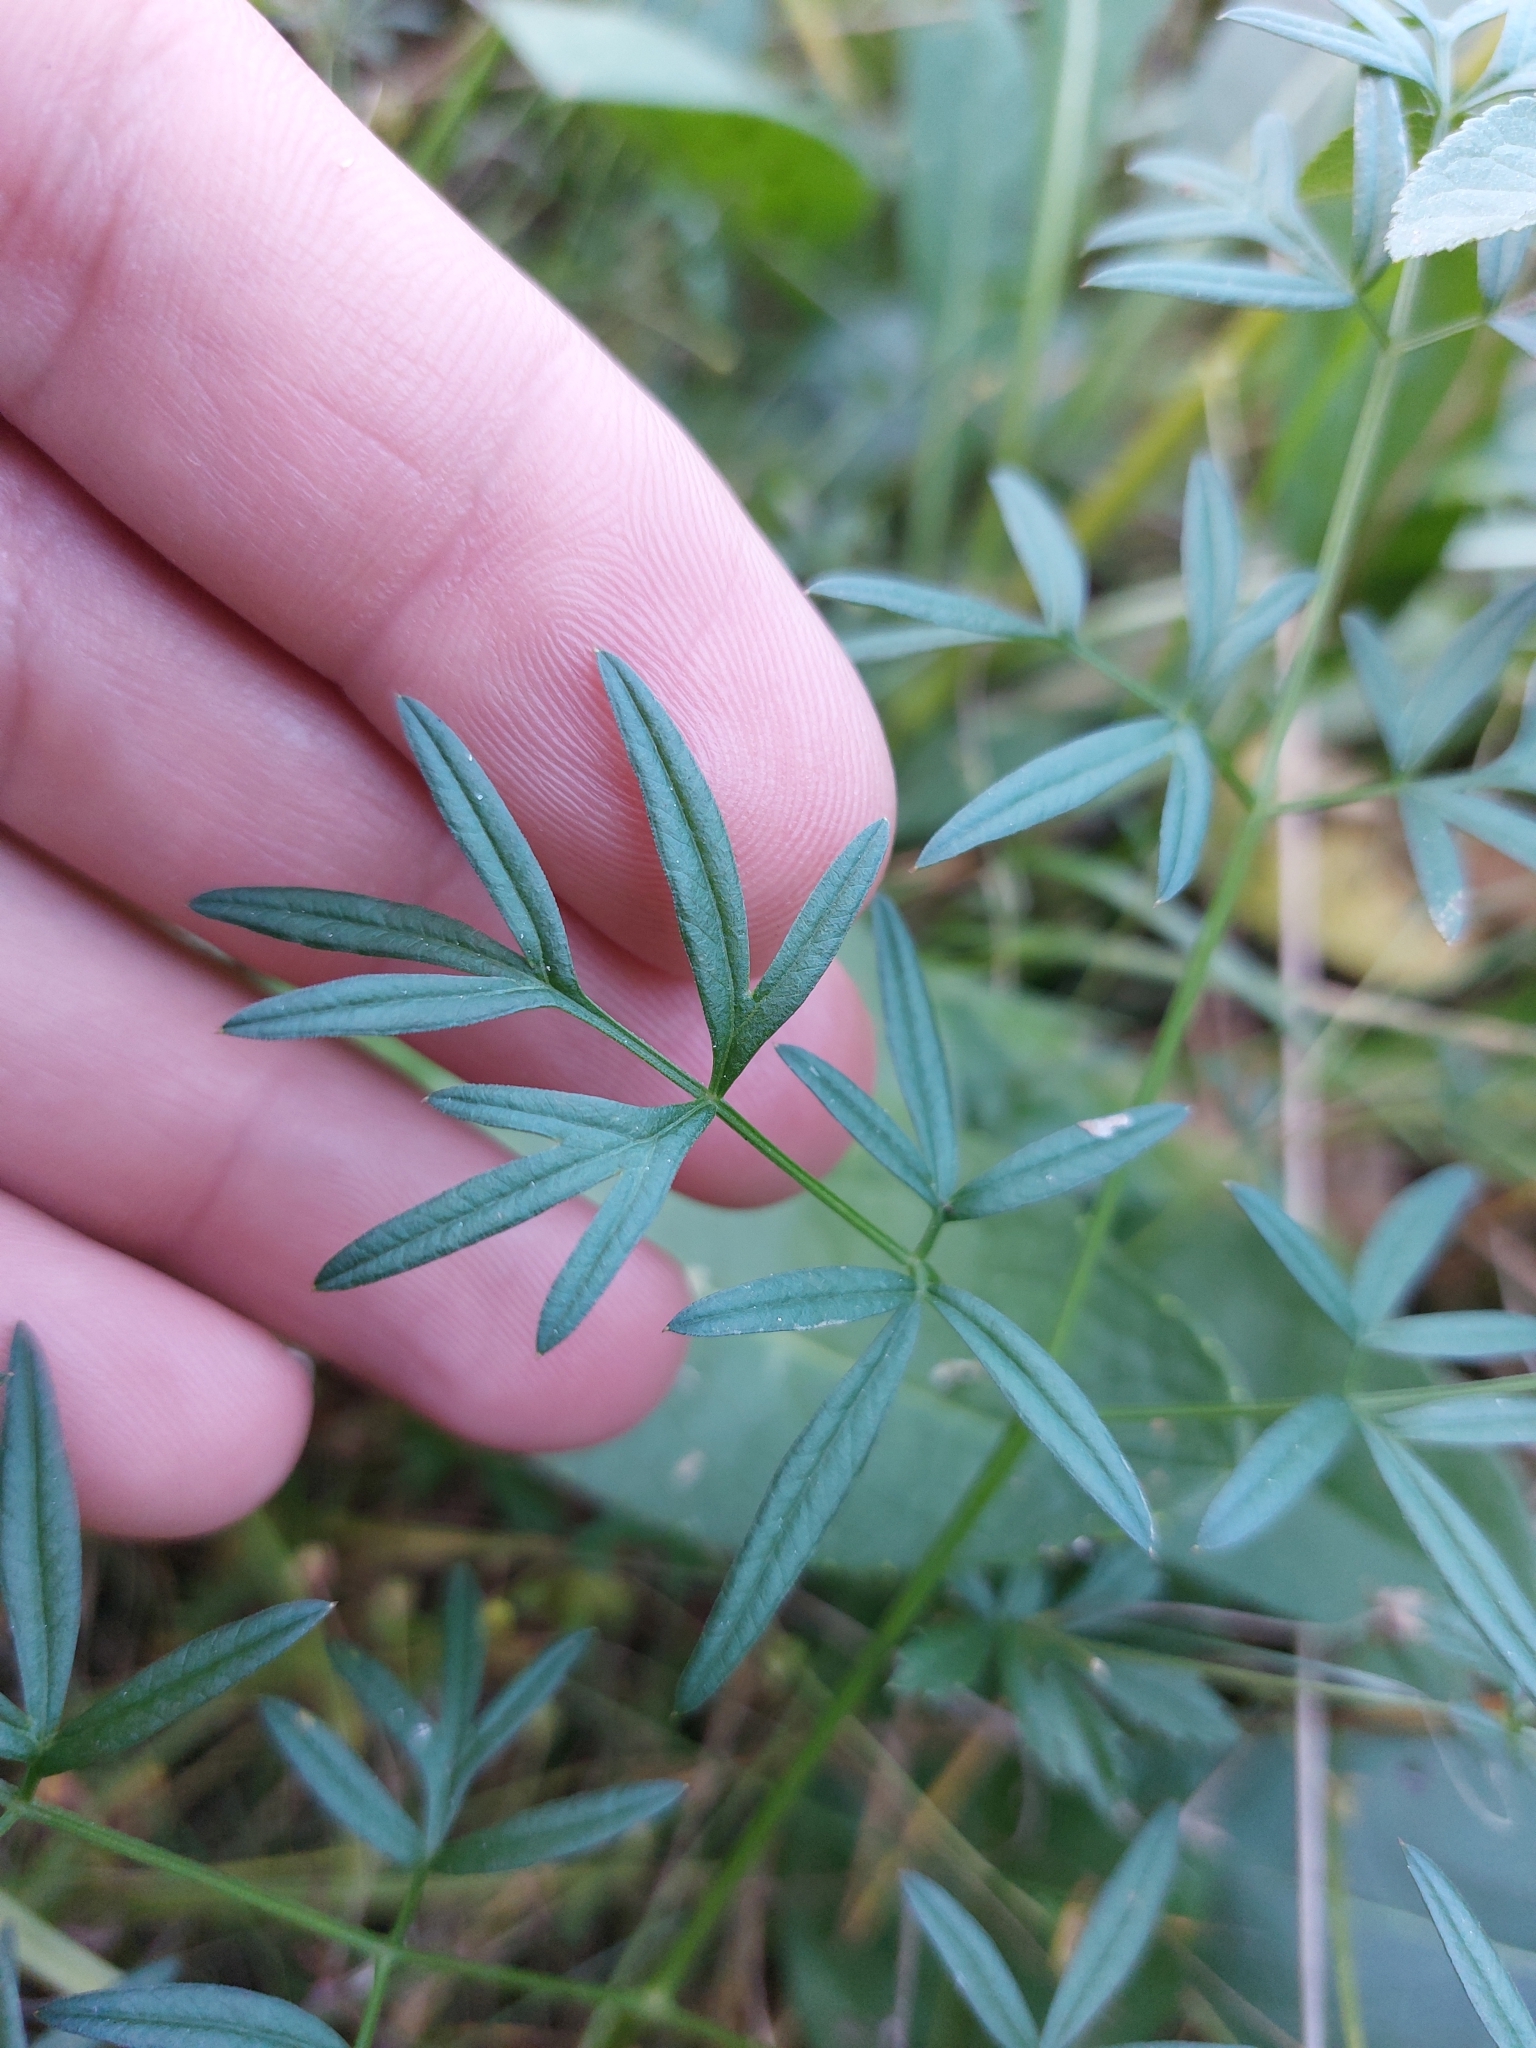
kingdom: Plantae
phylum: Tracheophyta
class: Magnoliopsida
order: Apiales
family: Apiaceae
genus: Silaum
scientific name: Silaum silaus
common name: Pepper-saxifrage
